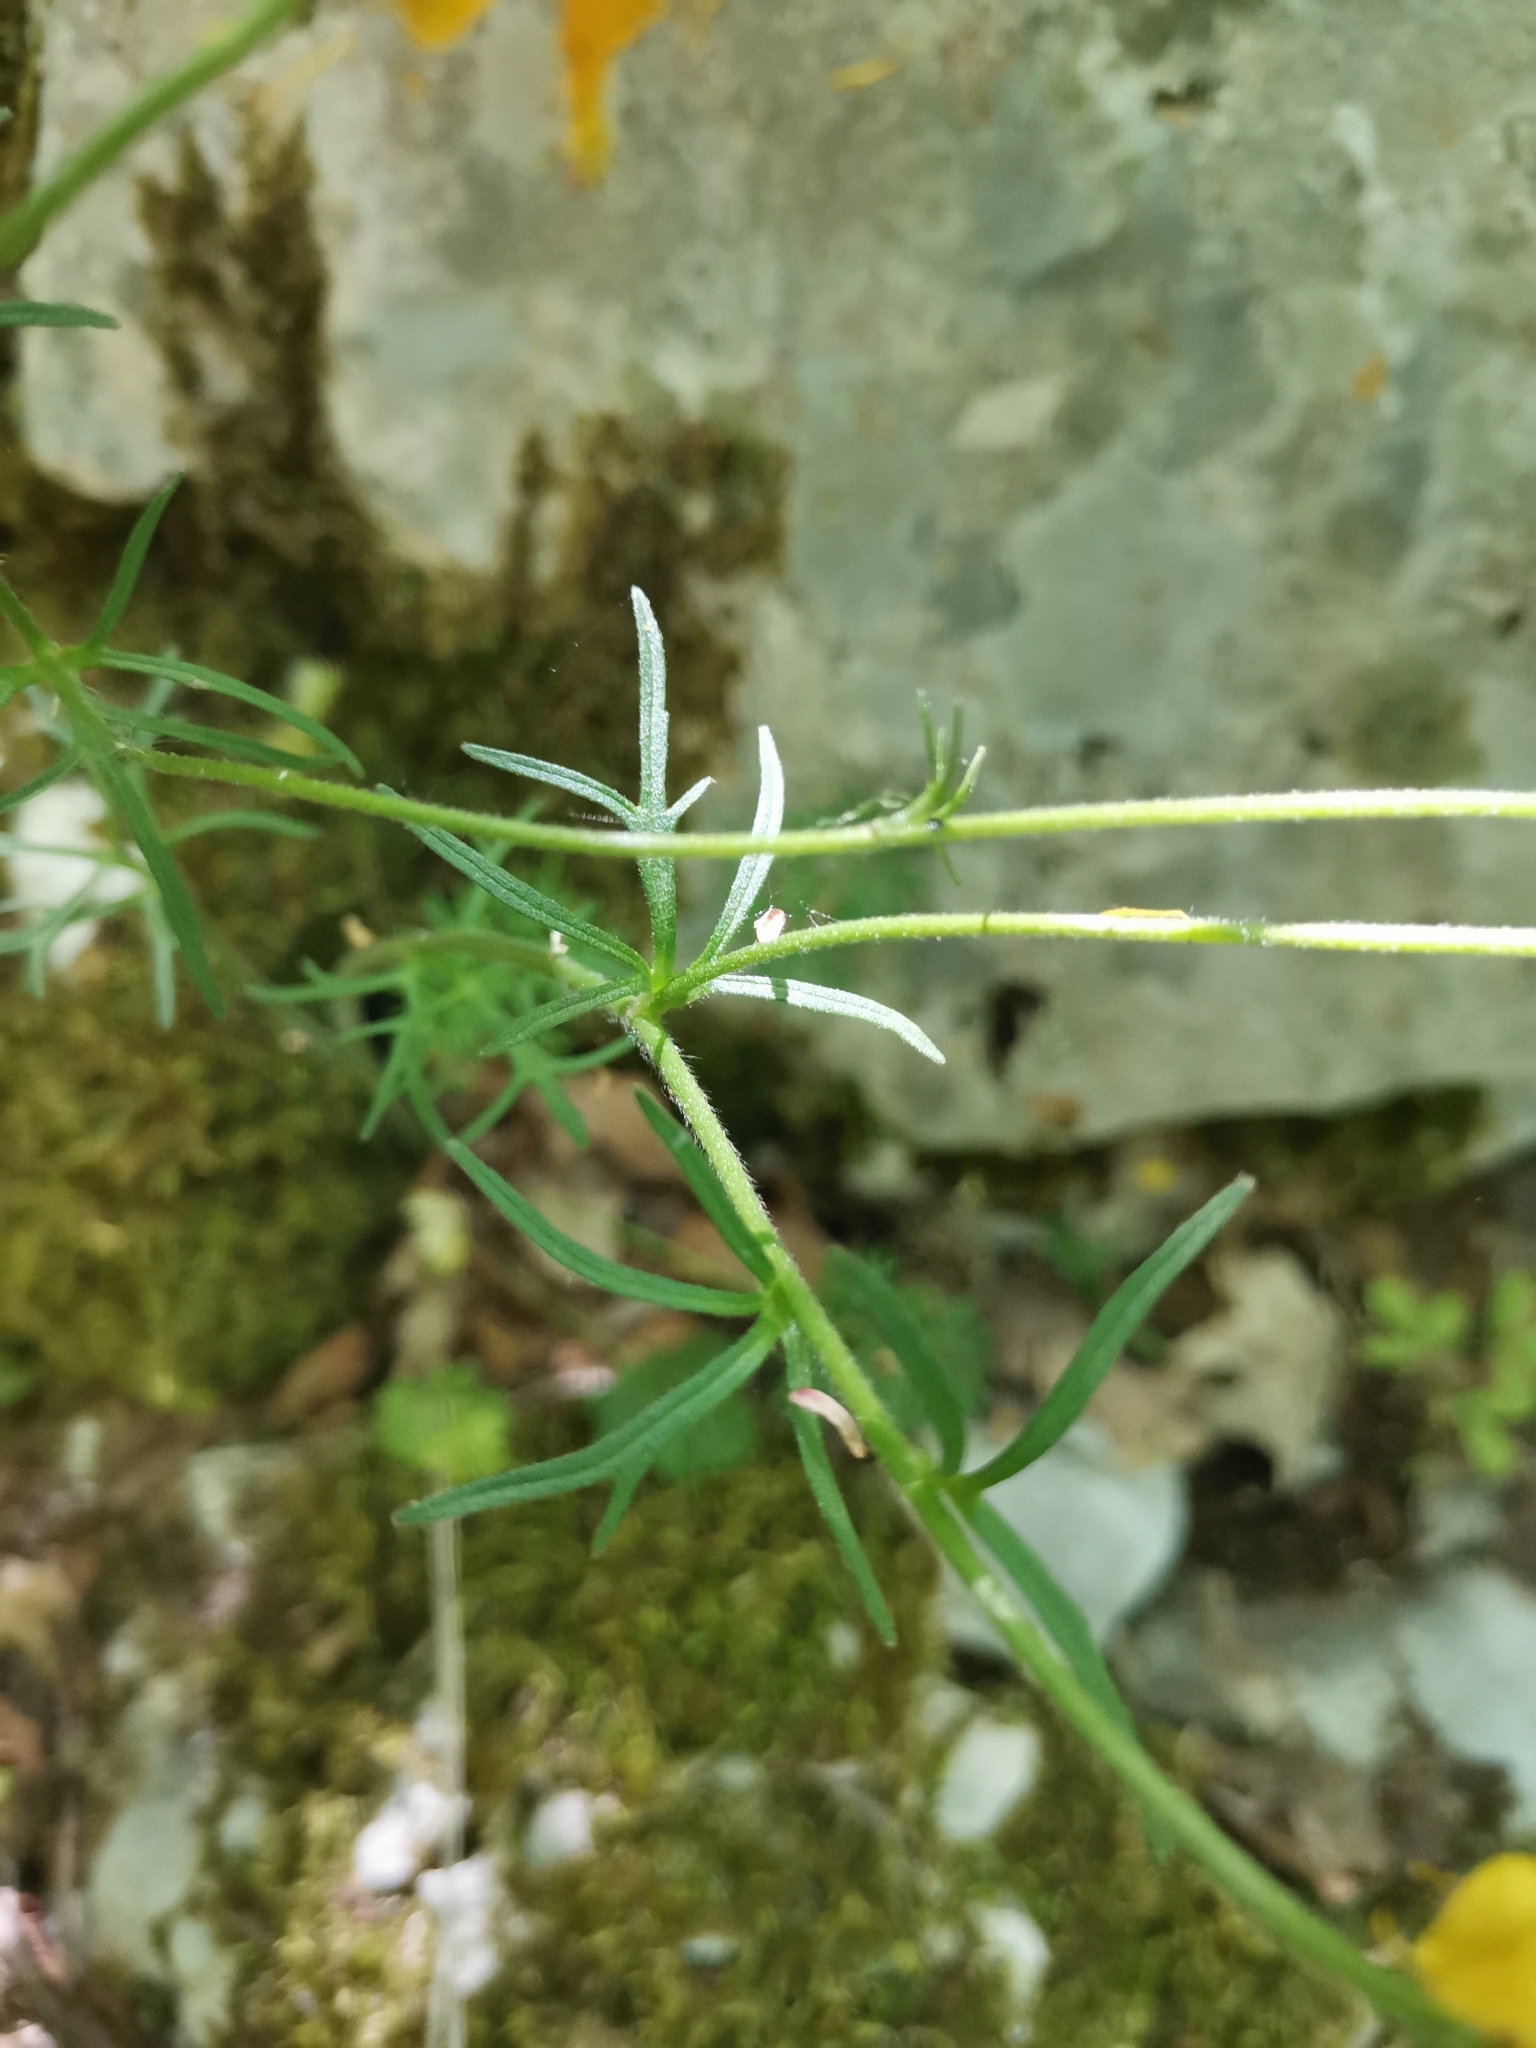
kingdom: Plantae
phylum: Tracheophyta
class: Magnoliopsida
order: Ranunculales
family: Ranunculaceae
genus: Ranunculus
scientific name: Ranunculus millefoliatus
